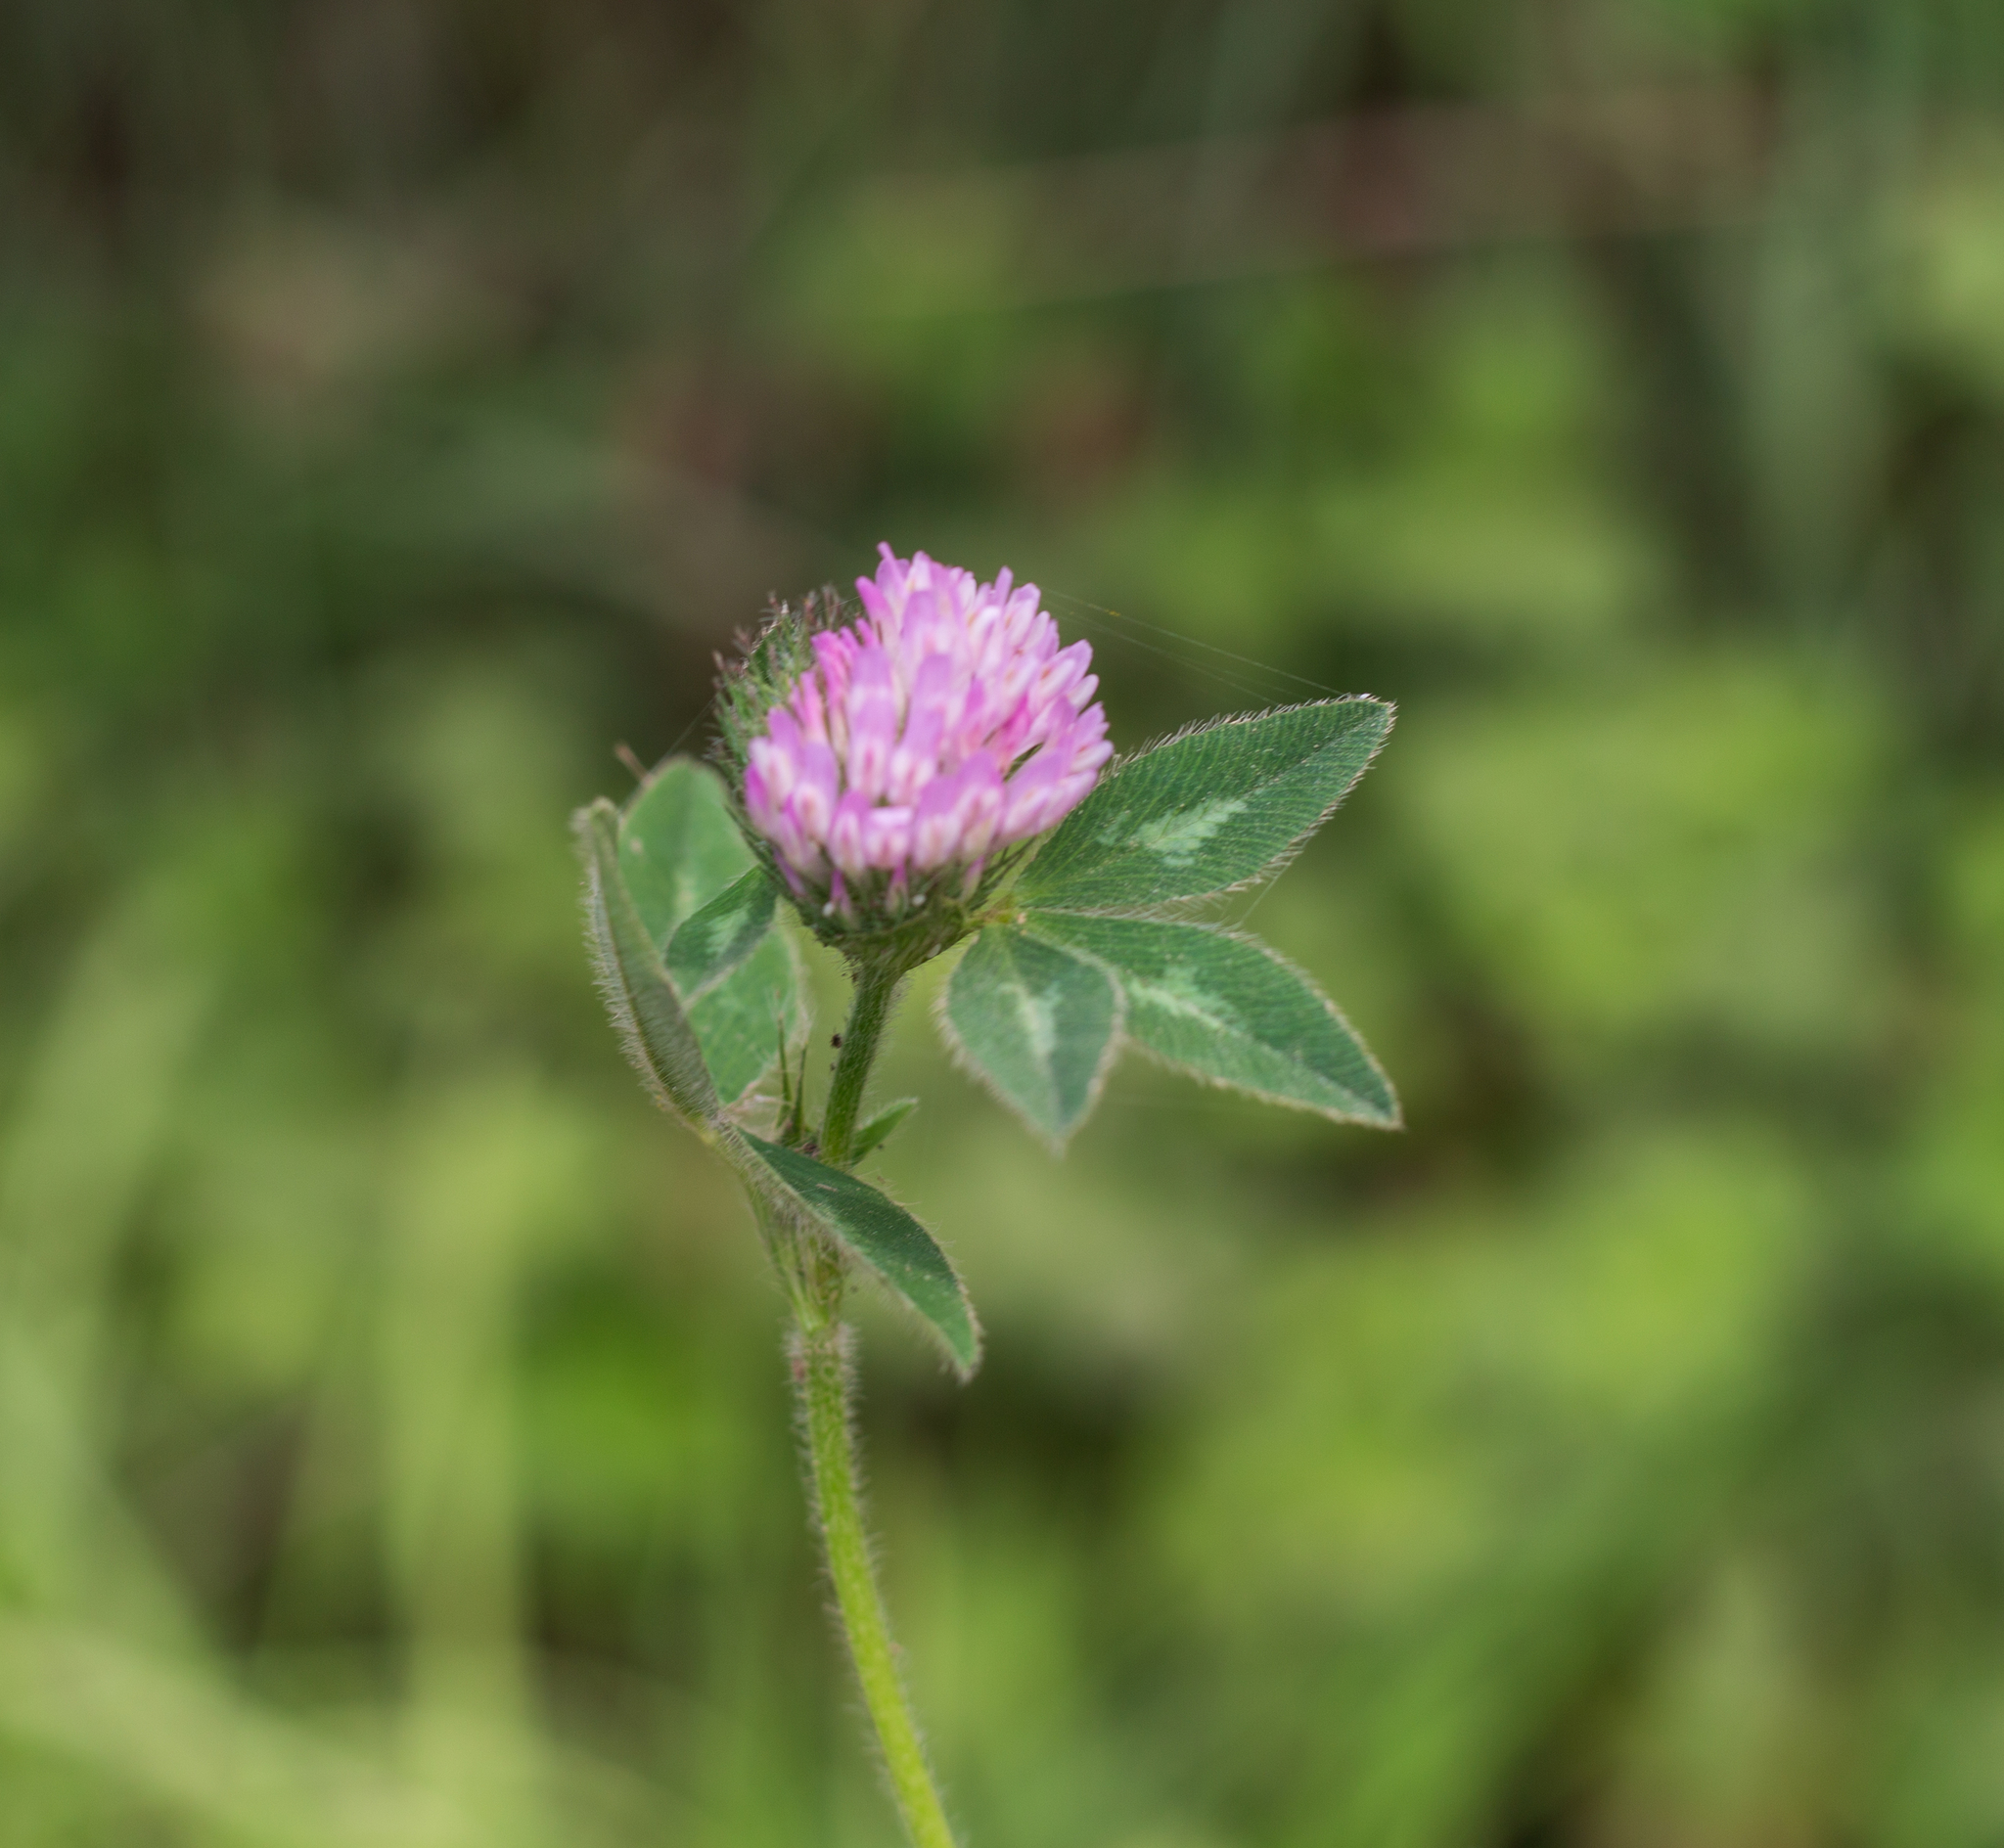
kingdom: Plantae
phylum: Tracheophyta
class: Magnoliopsida
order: Fabales
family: Fabaceae
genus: Trifolium
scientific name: Trifolium pratense
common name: Red clover
